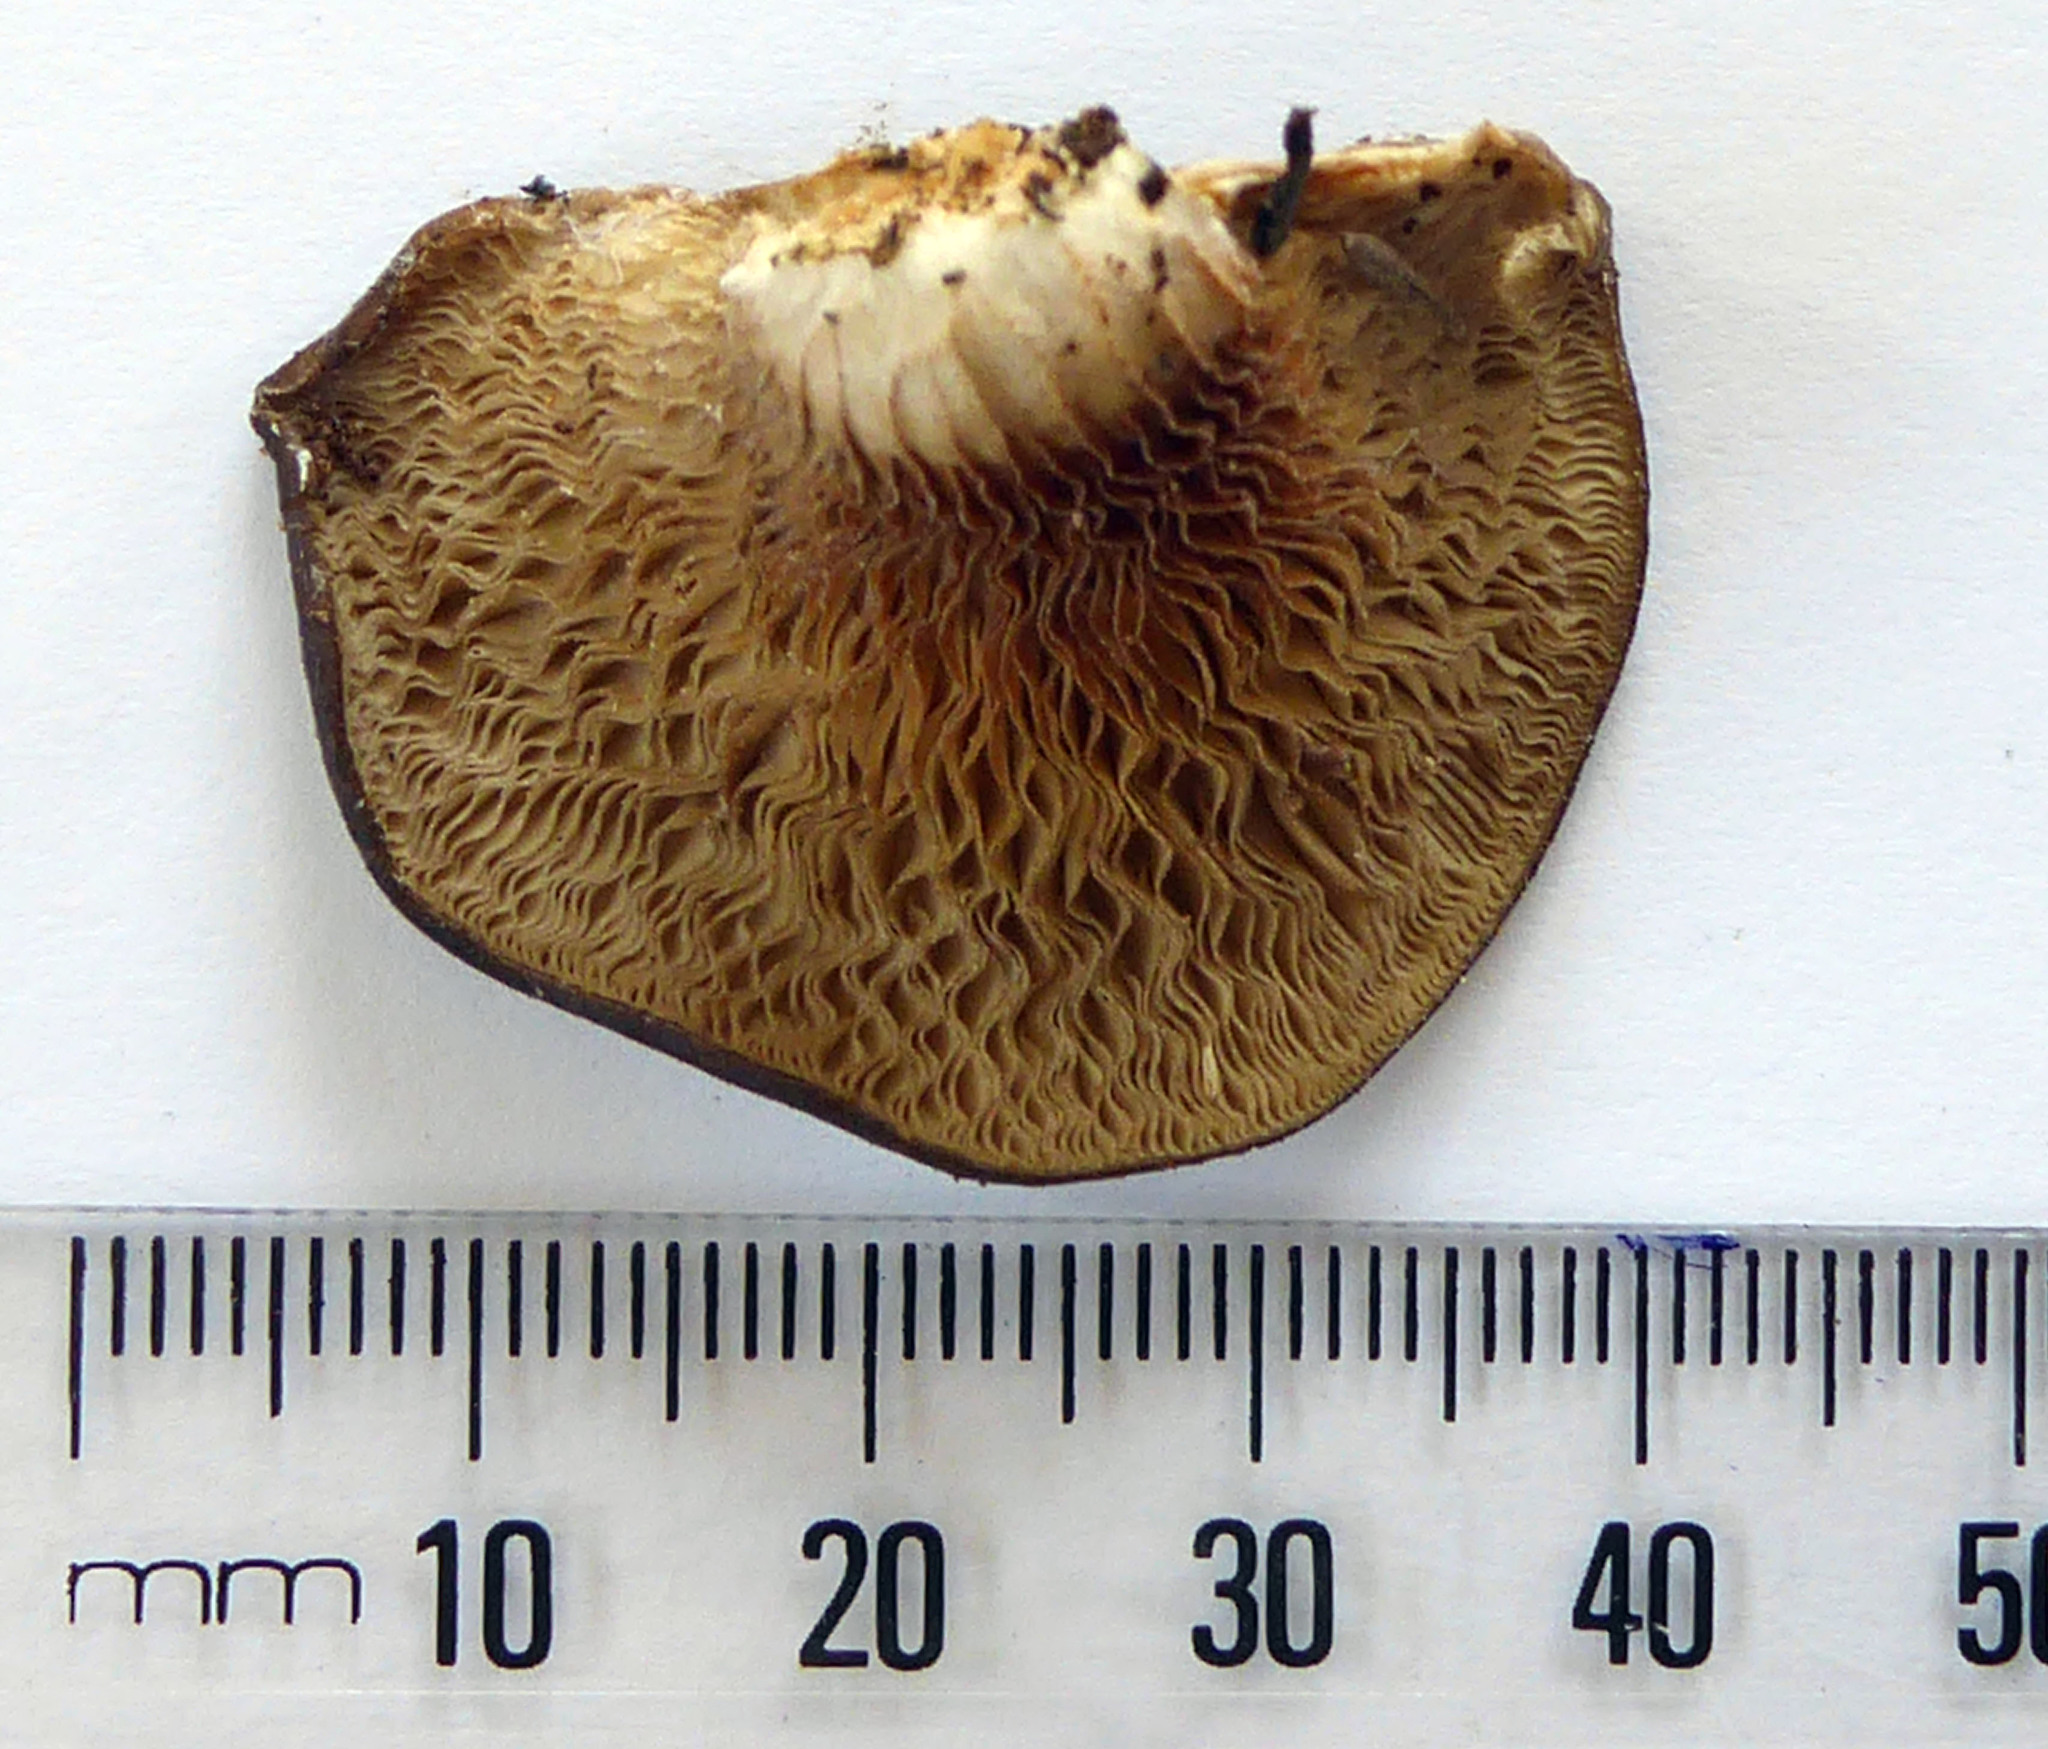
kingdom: Fungi
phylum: Basidiomycota
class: Agaricomycetes
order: Agaricales
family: Pleurotaceae
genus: Hohenbuehelia
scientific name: Hohenbuehelia petaloides
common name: Shoehorn oyster
